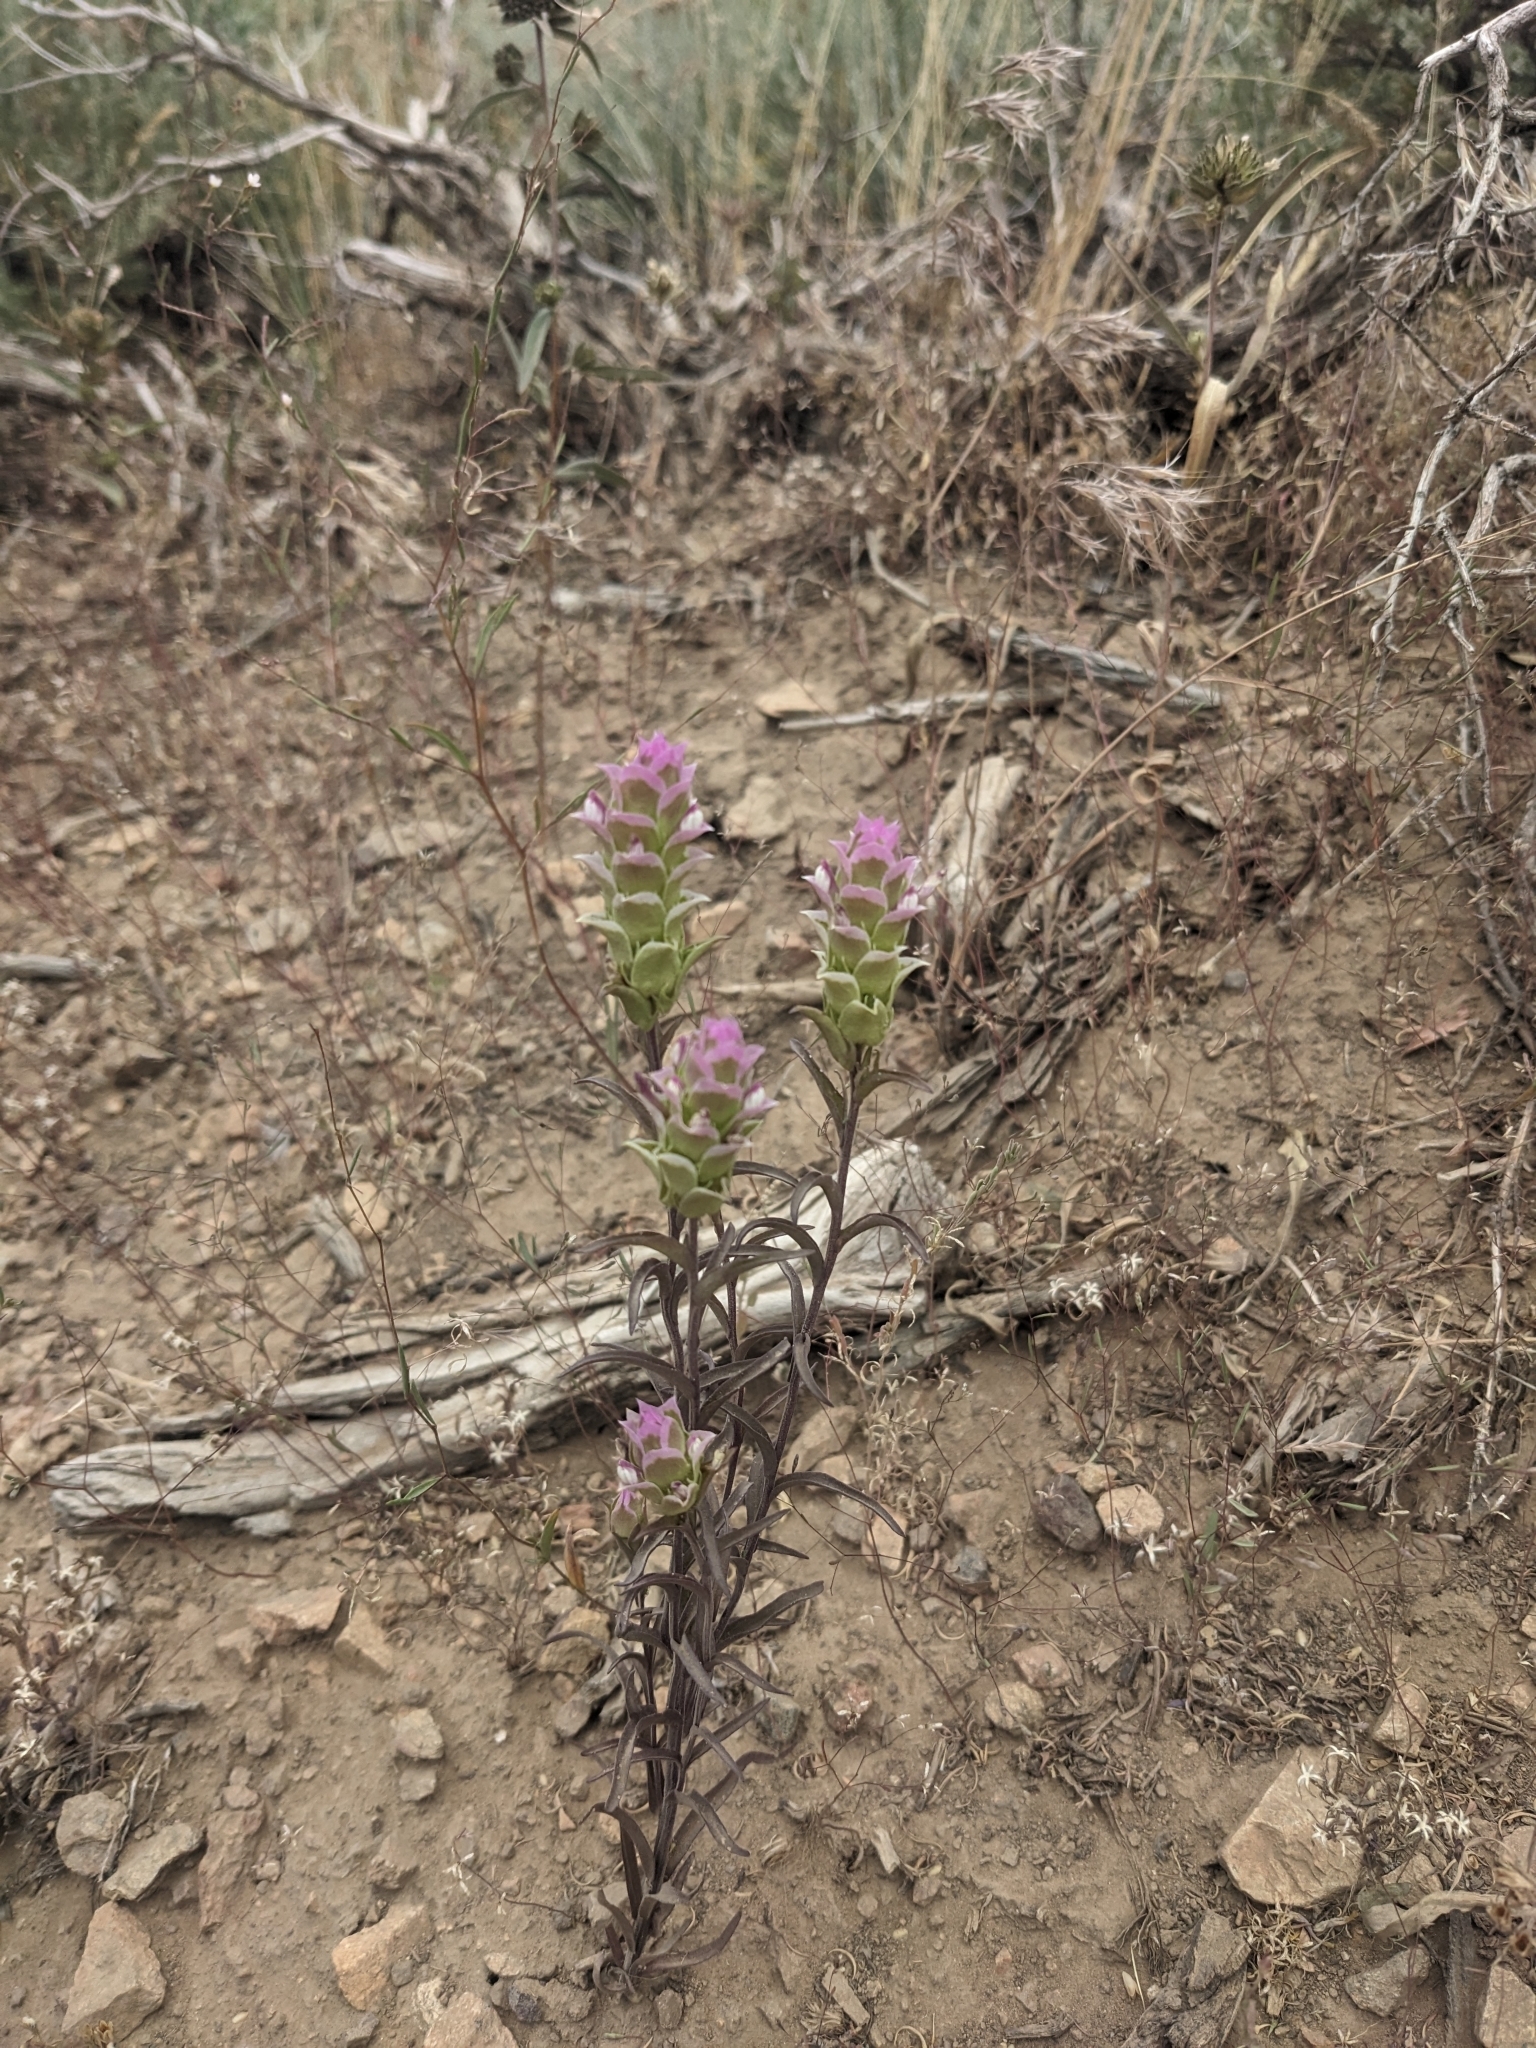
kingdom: Plantae
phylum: Tracheophyta
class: Magnoliopsida
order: Lamiales
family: Orobanchaceae
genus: Orthocarpus
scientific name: Orthocarpus cuspidatus
